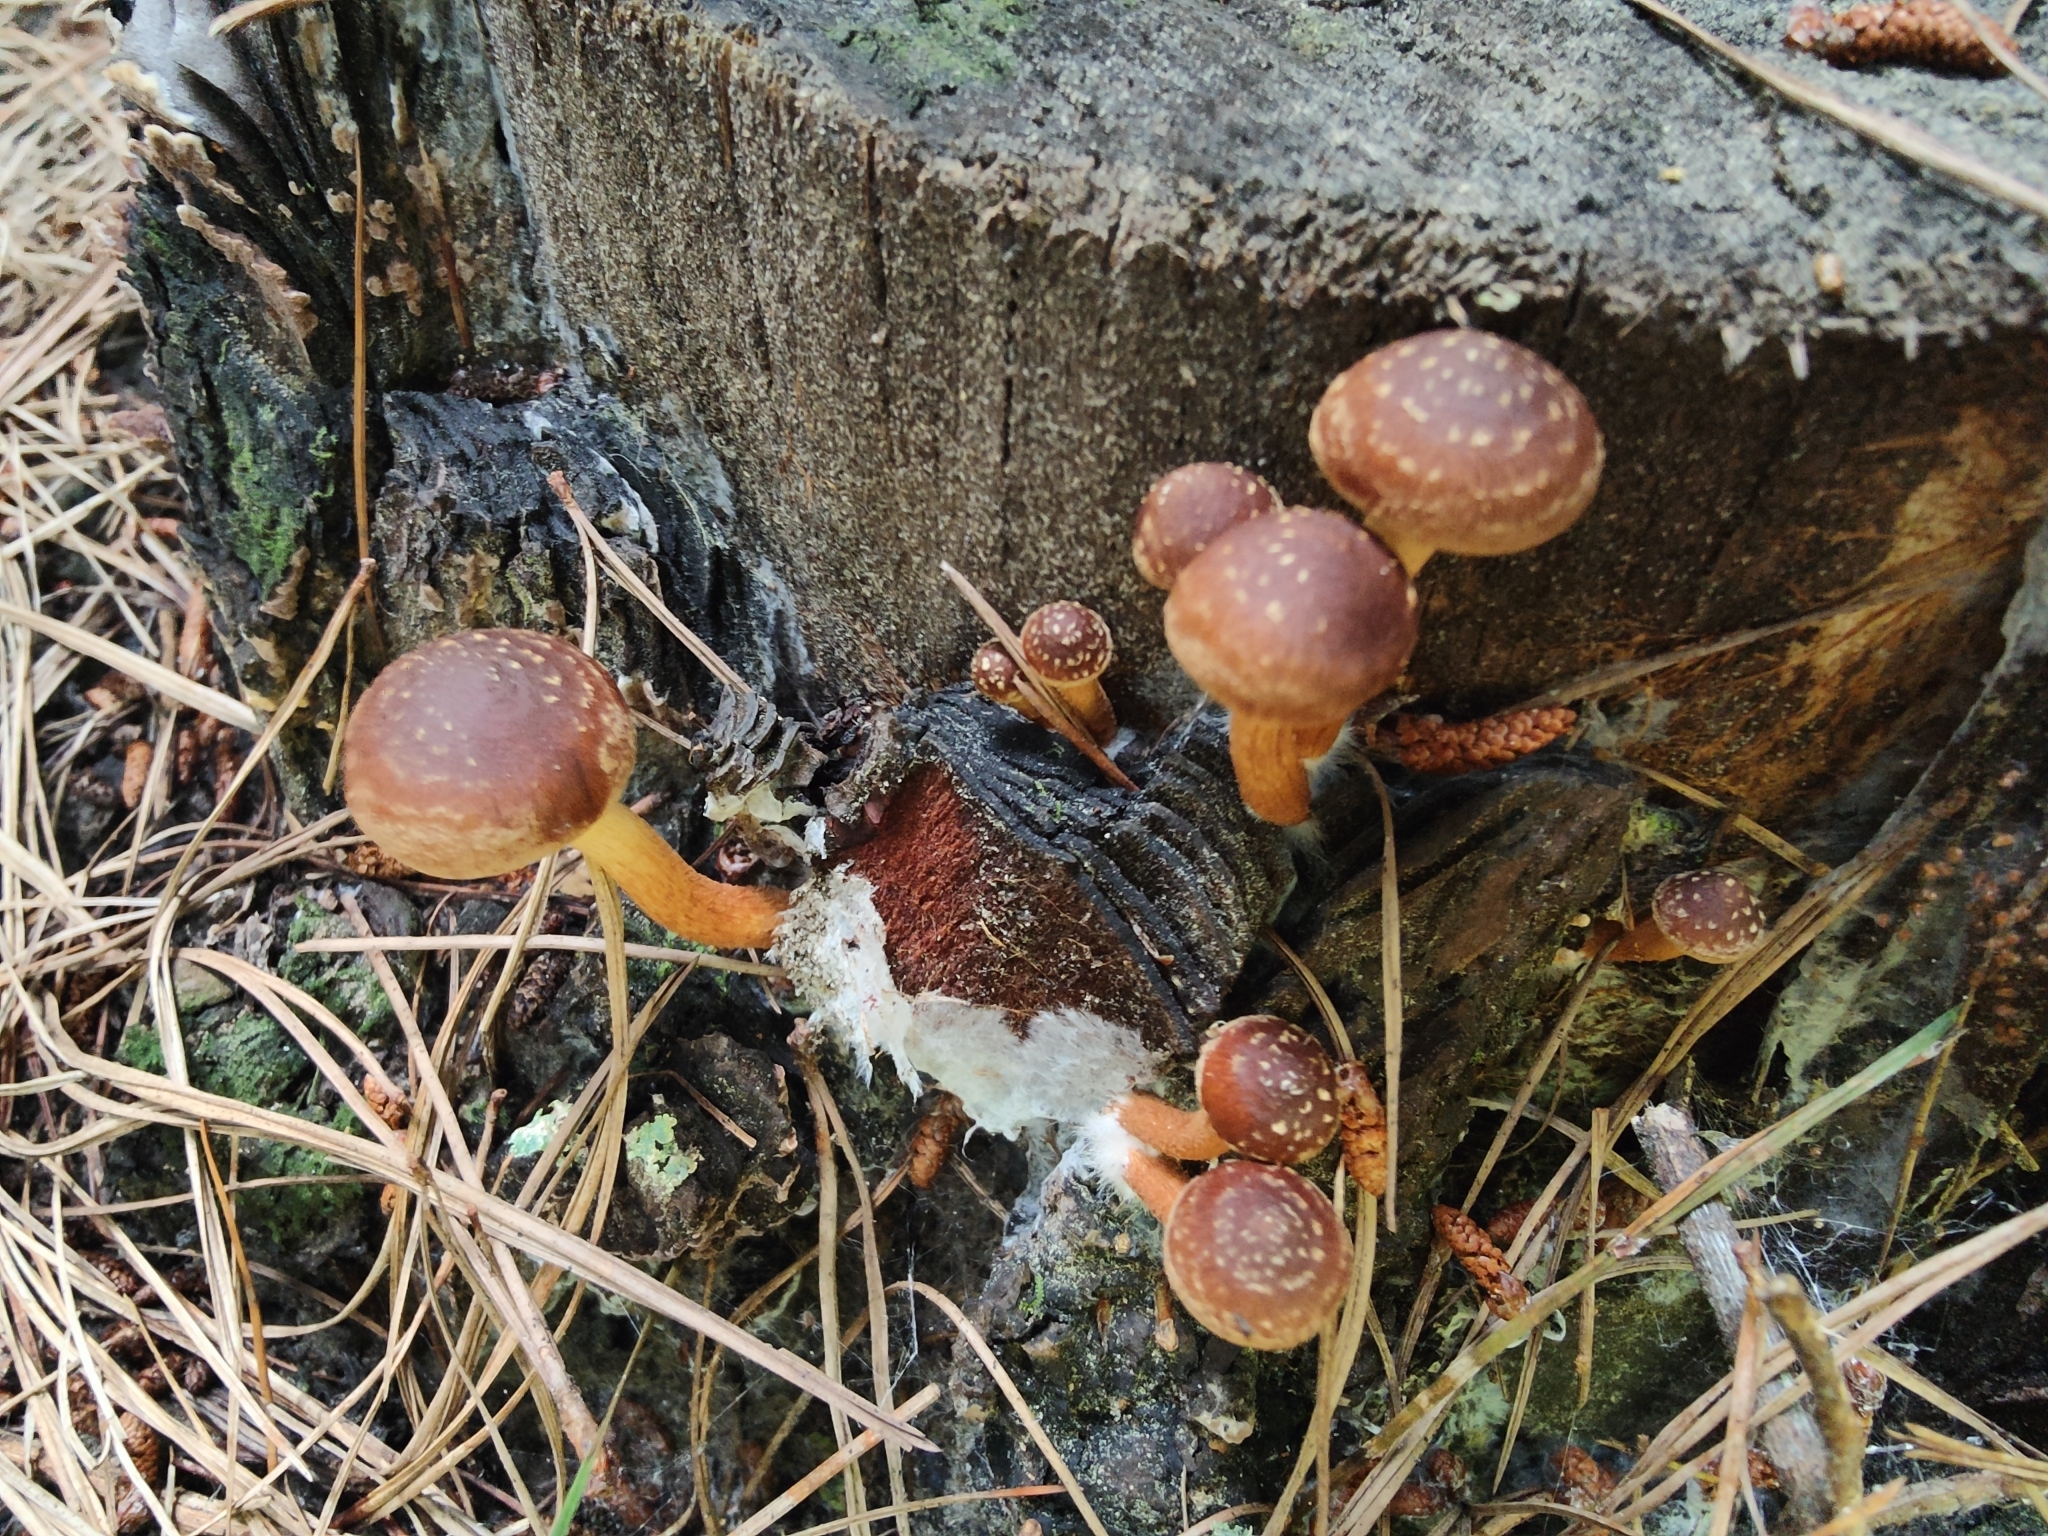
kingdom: Fungi
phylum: Basidiomycota
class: Agaricomycetes
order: Agaricales
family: Strophariaceae
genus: Hypholoma
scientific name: Hypholoma brunneum
